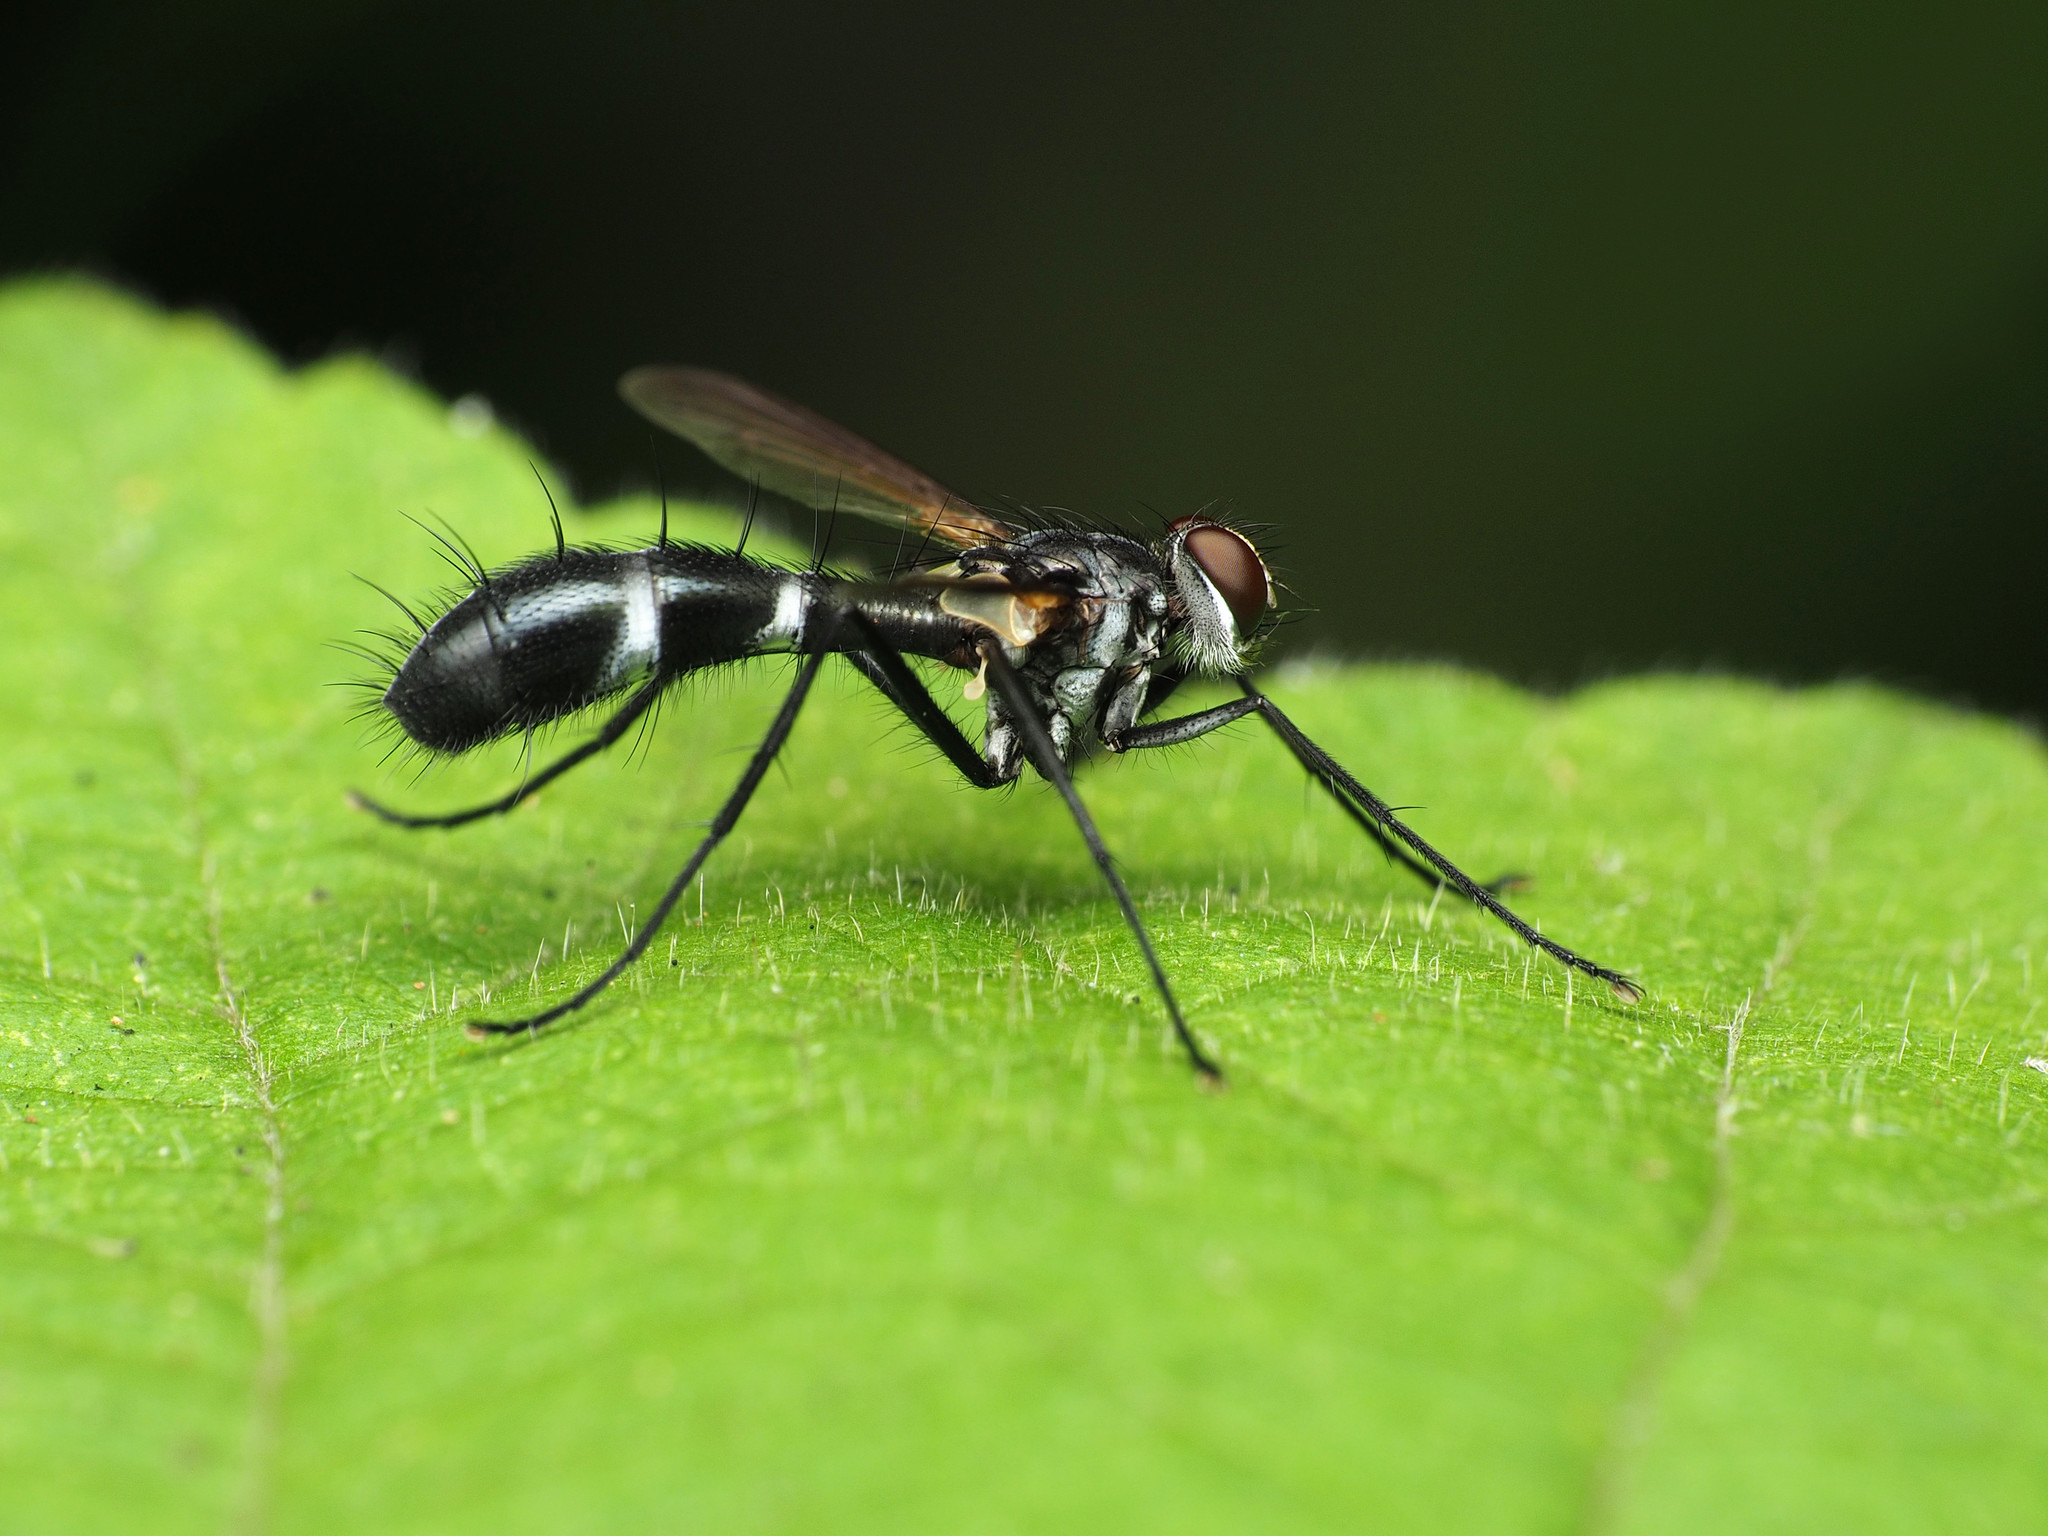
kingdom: Animalia
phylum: Arthropoda
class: Insecta
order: Diptera
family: Tachinidae
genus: Cordyligaster
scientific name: Cordyligaster septentrionalis
